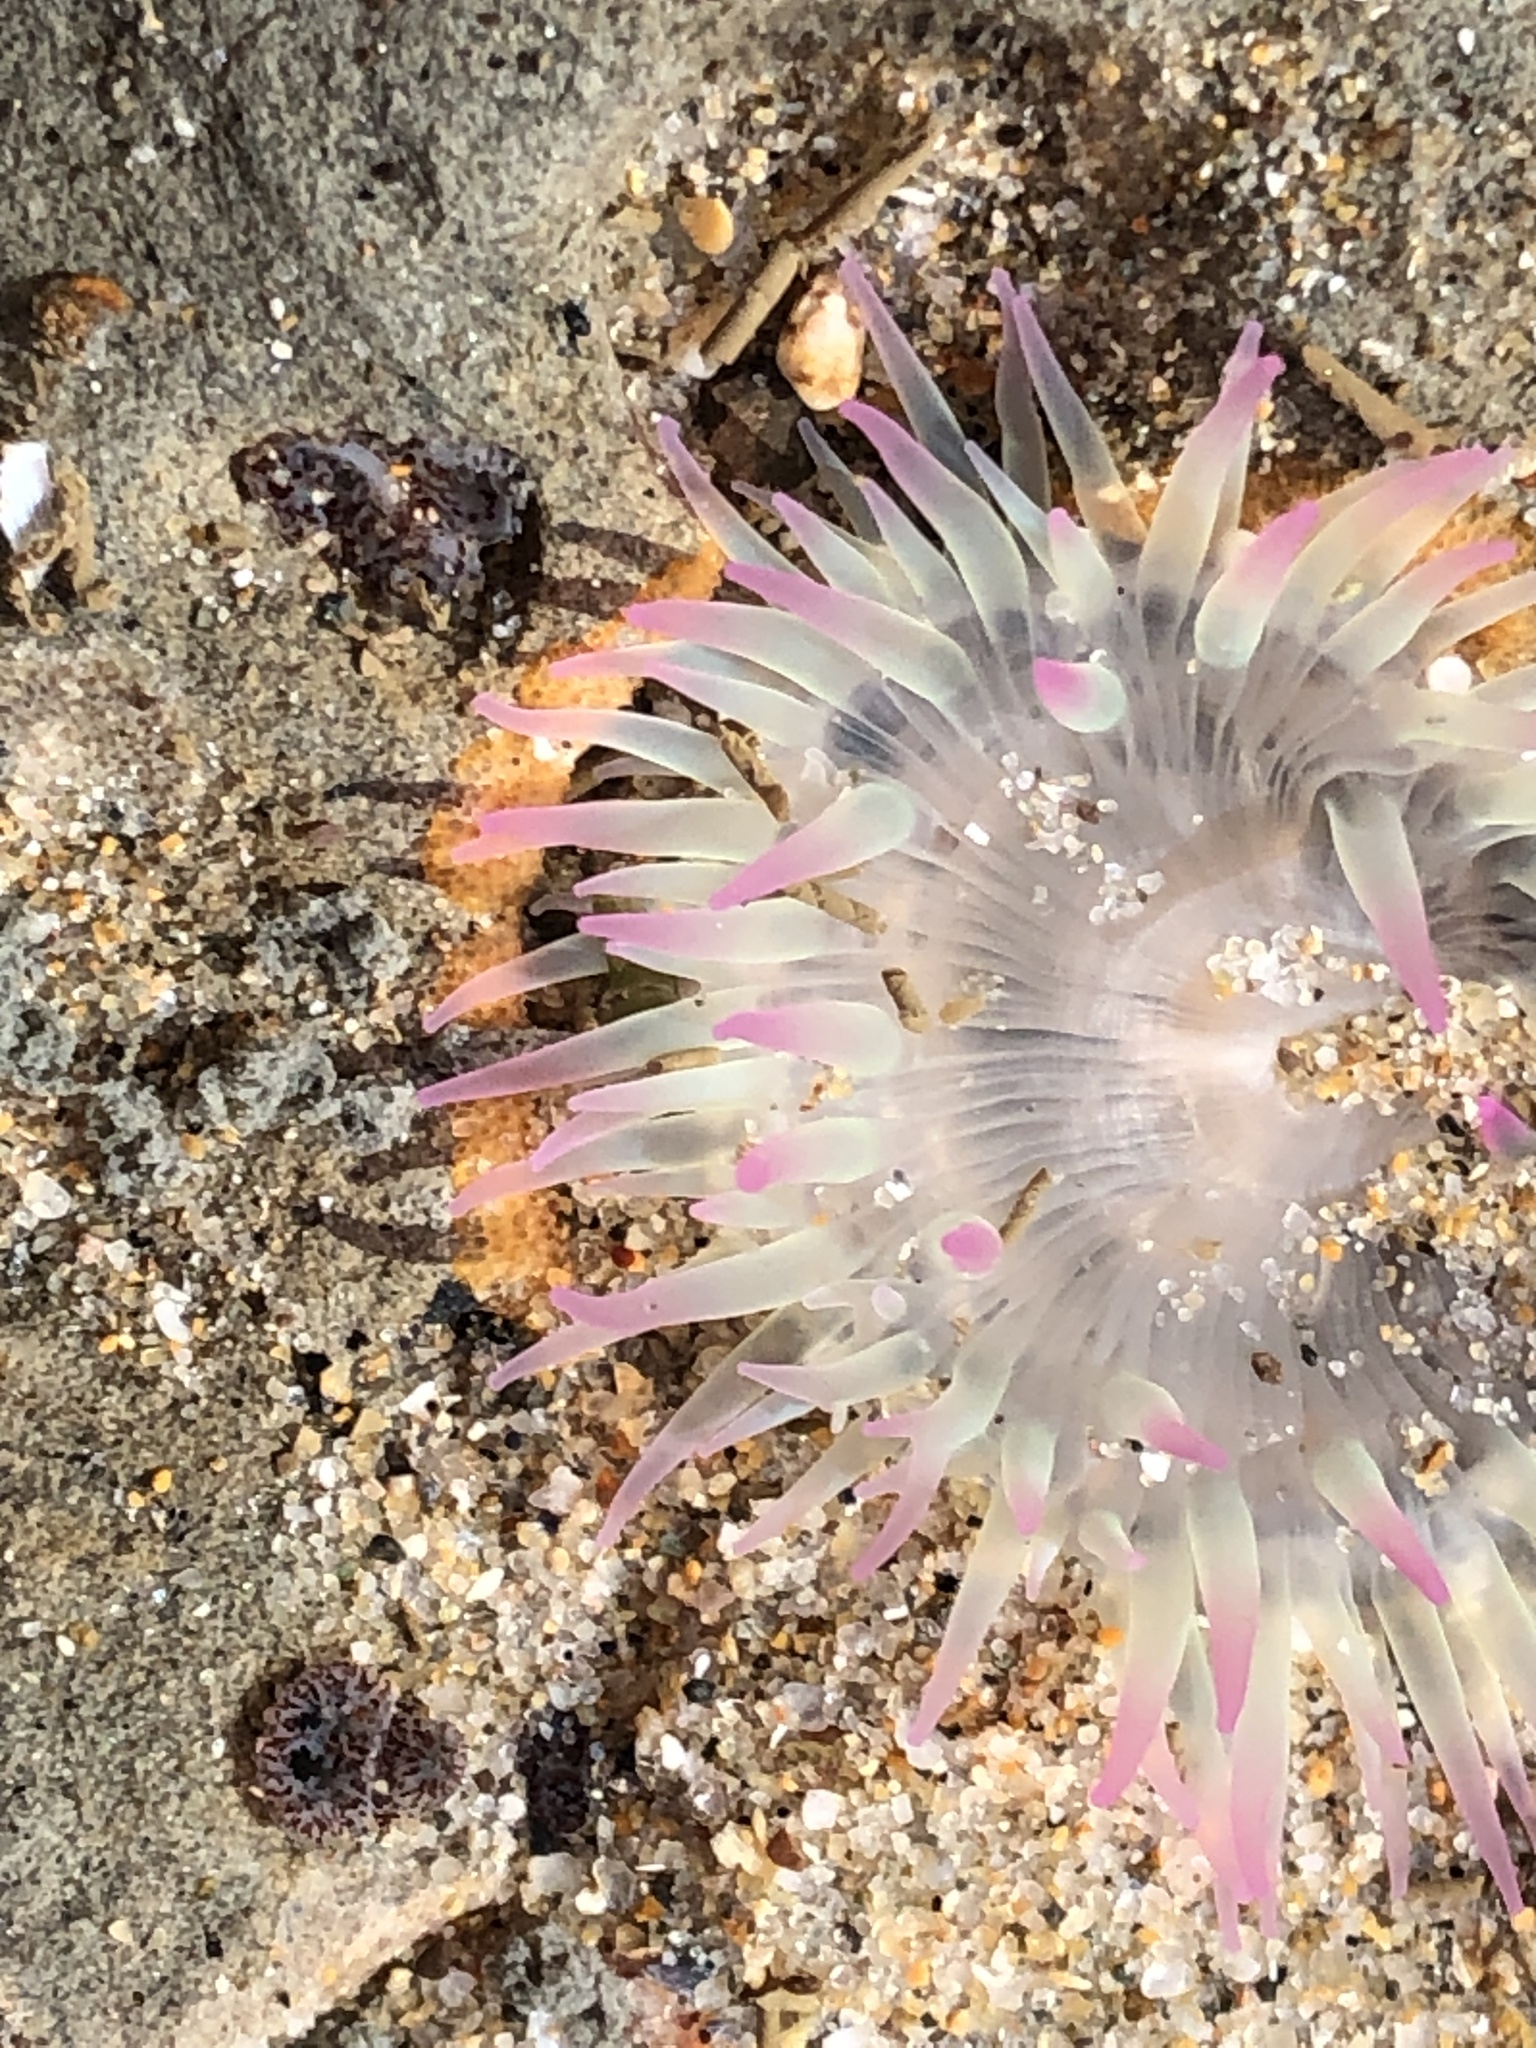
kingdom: Animalia
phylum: Cnidaria
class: Anthozoa
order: Actiniaria
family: Actiniidae
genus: Anthopleura
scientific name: Anthopleura elegantissima
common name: Clonal anemone
